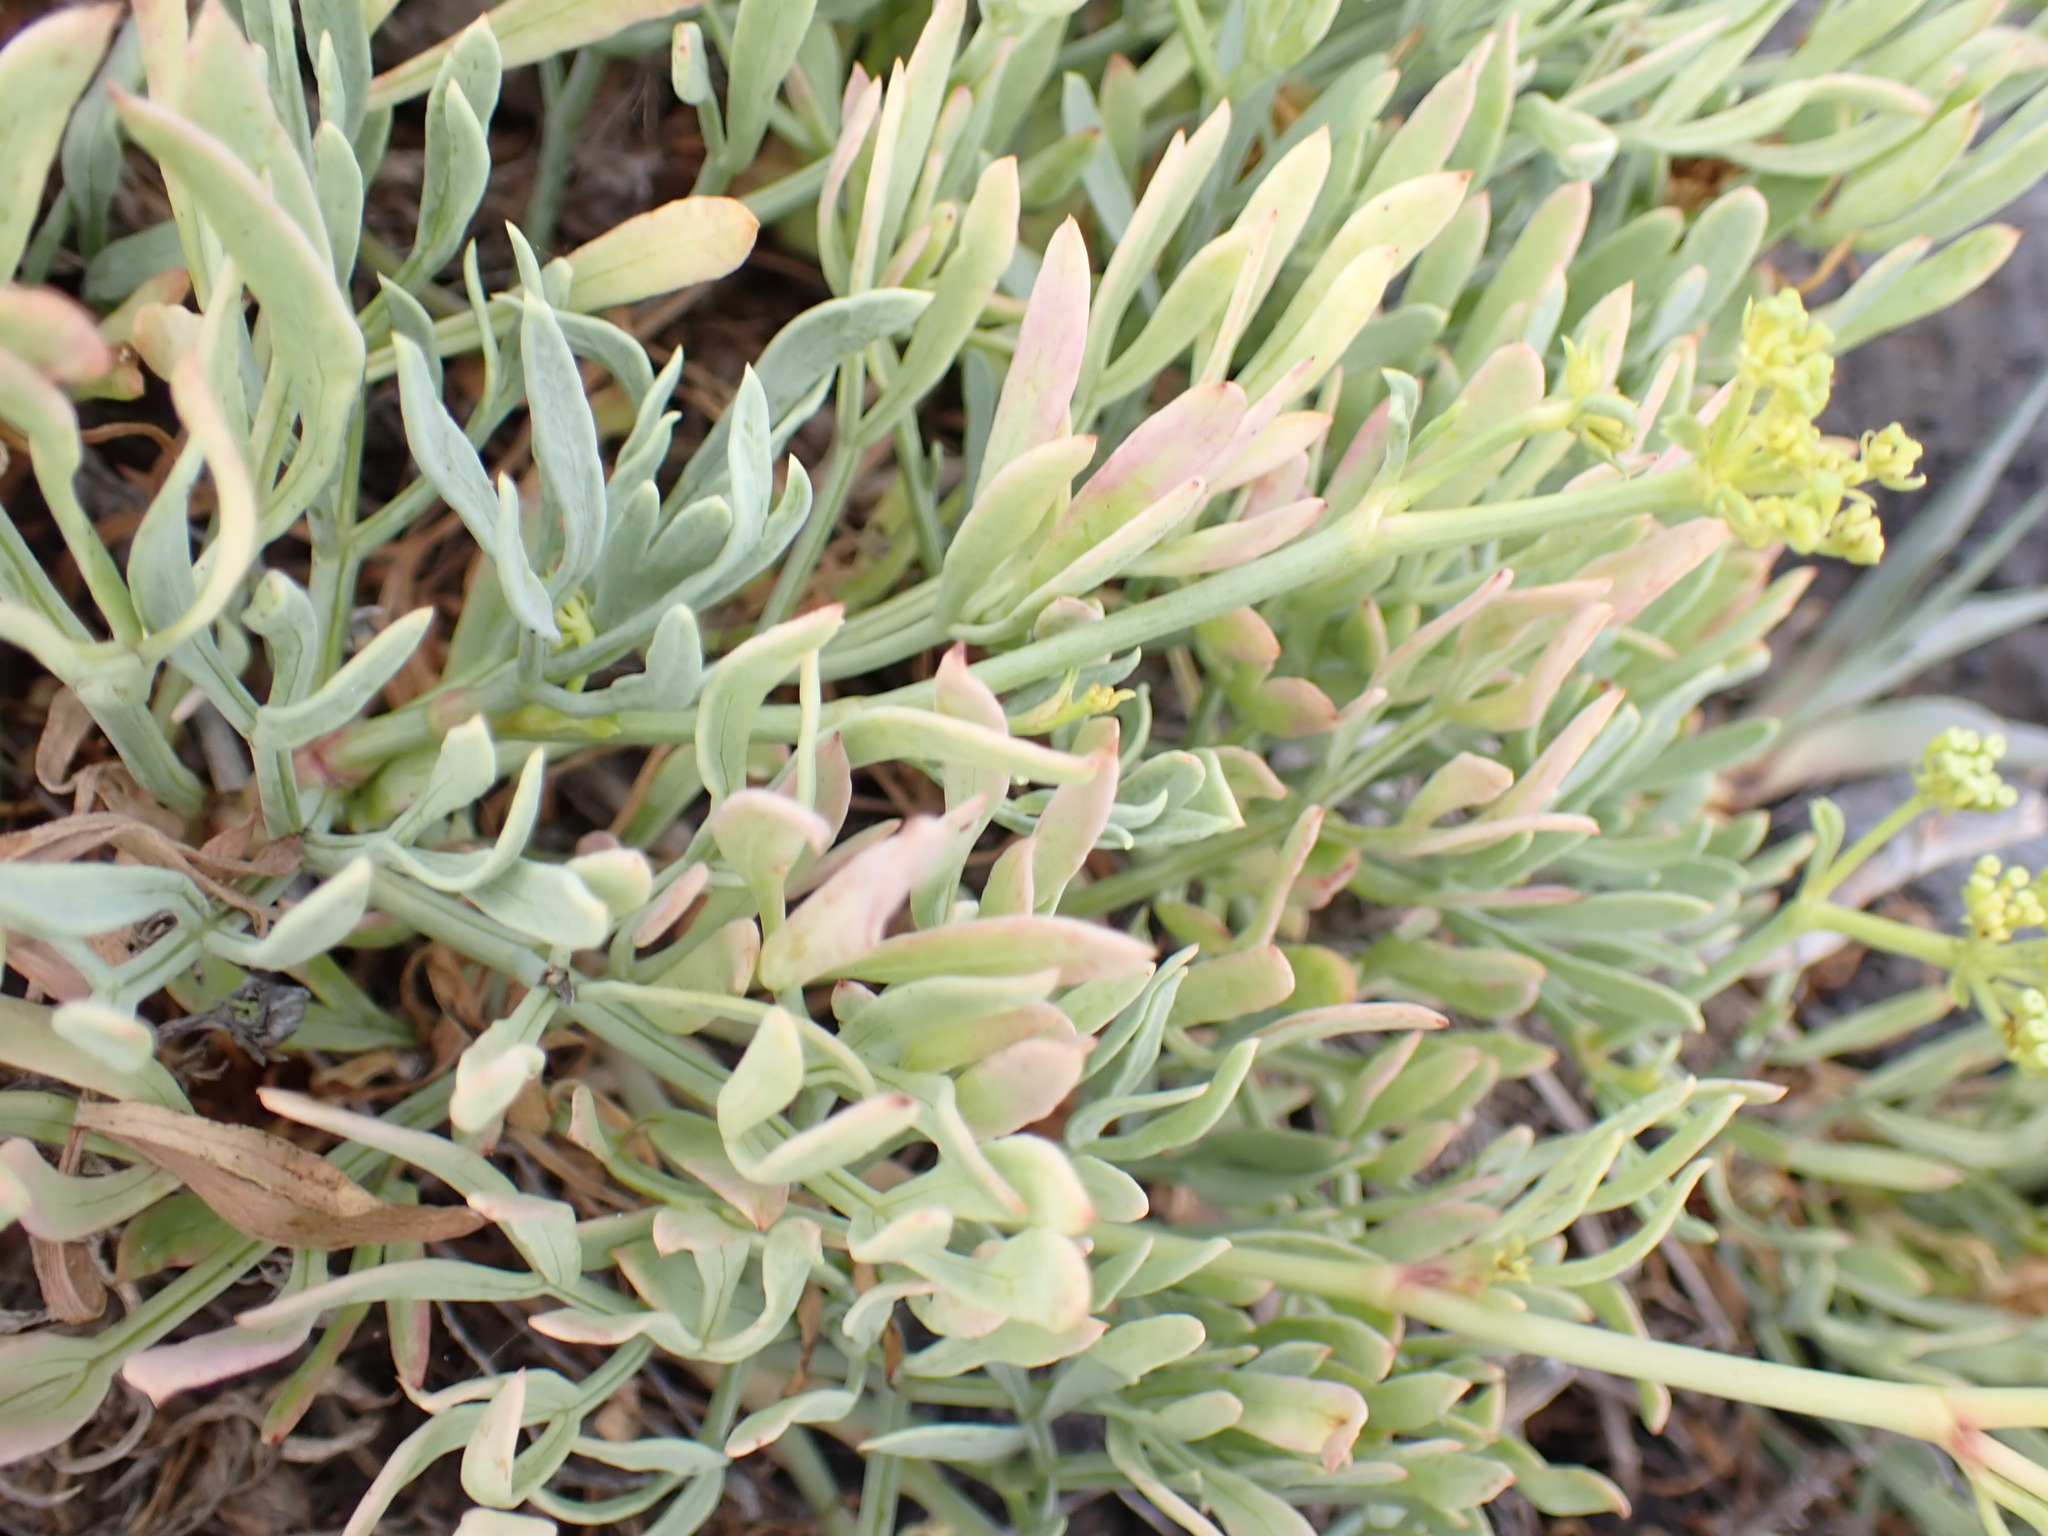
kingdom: Plantae
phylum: Tracheophyta
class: Magnoliopsida
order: Apiales
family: Apiaceae
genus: Crithmum
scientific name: Crithmum maritimum
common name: Rock samphire
